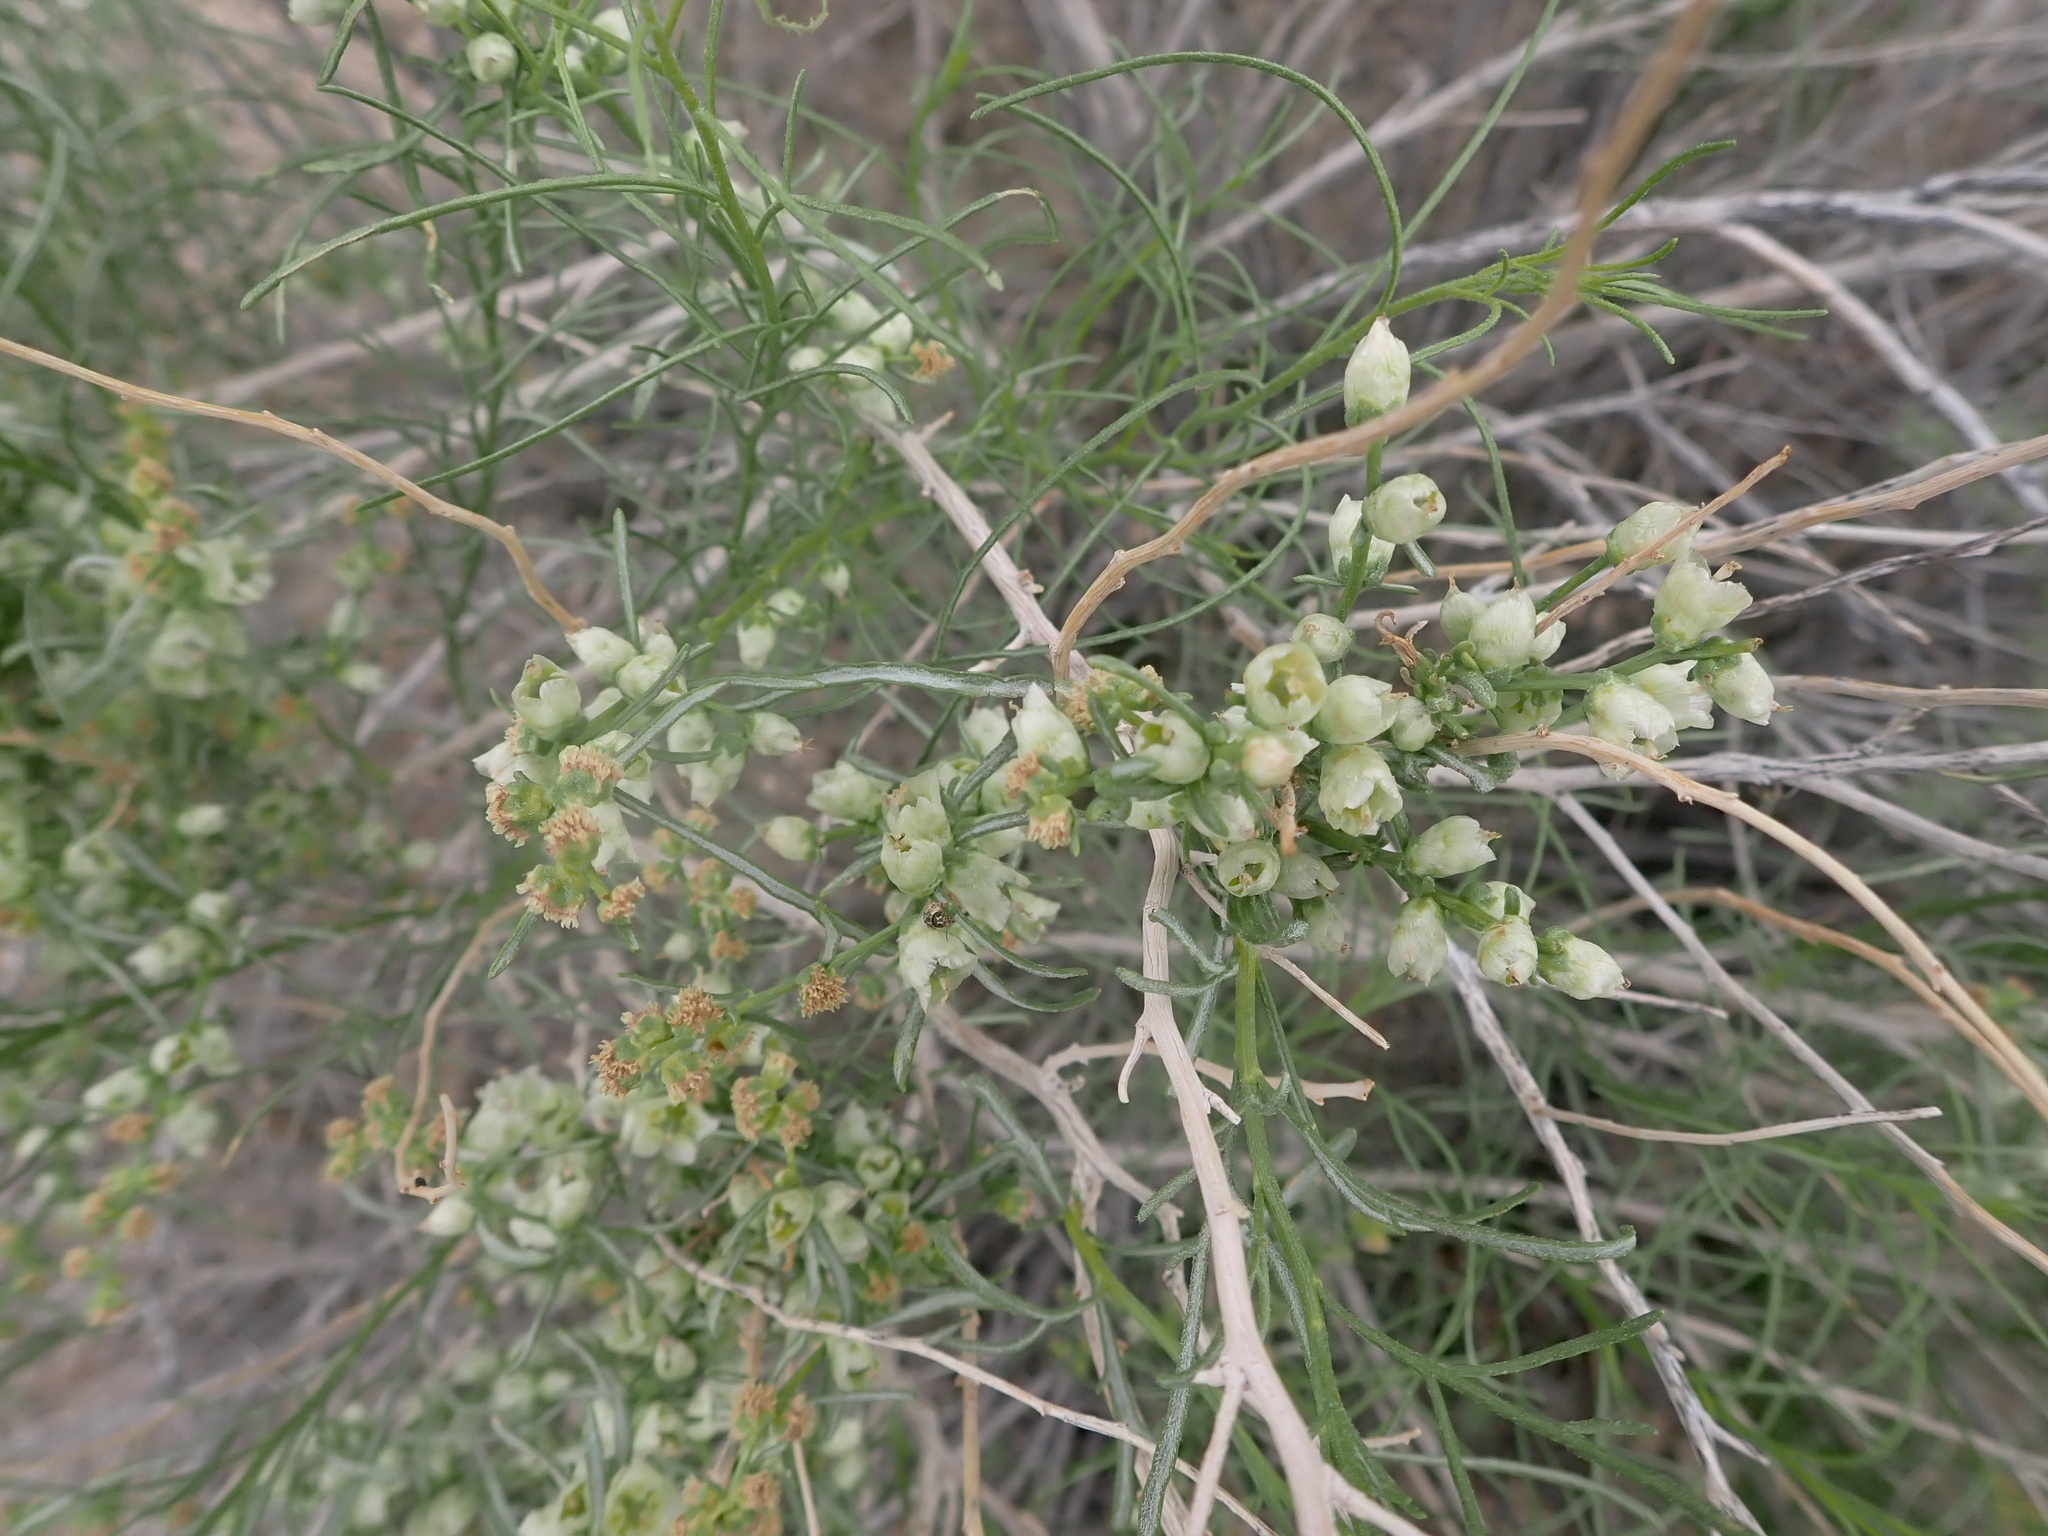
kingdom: Plantae
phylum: Tracheophyta
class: Magnoliopsida
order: Asterales
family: Asteraceae
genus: Ambrosia
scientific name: Ambrosia salsola
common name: Burrobrush
